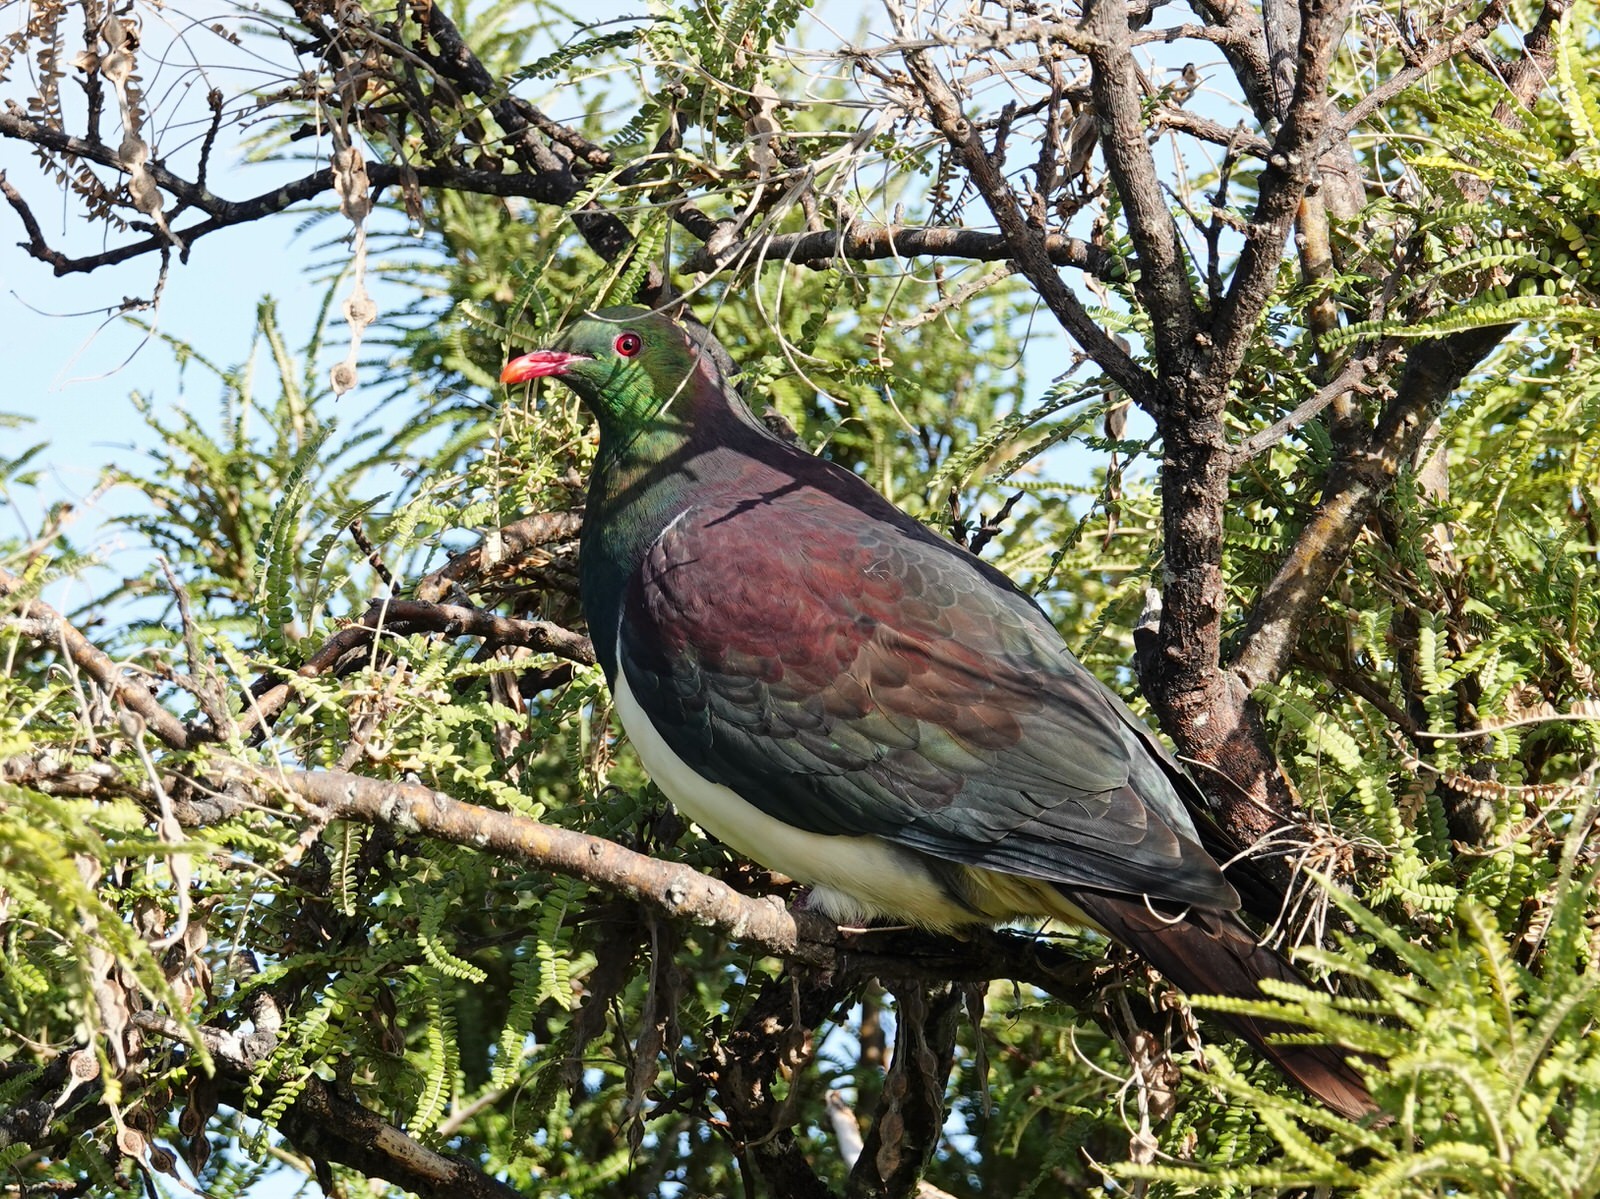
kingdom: Animalia
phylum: Chordata
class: Aves
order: Columbiformes
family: Columbidae
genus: Hemiphaga
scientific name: Hemiphaga novaeseelandiae
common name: New zealand pigeon
